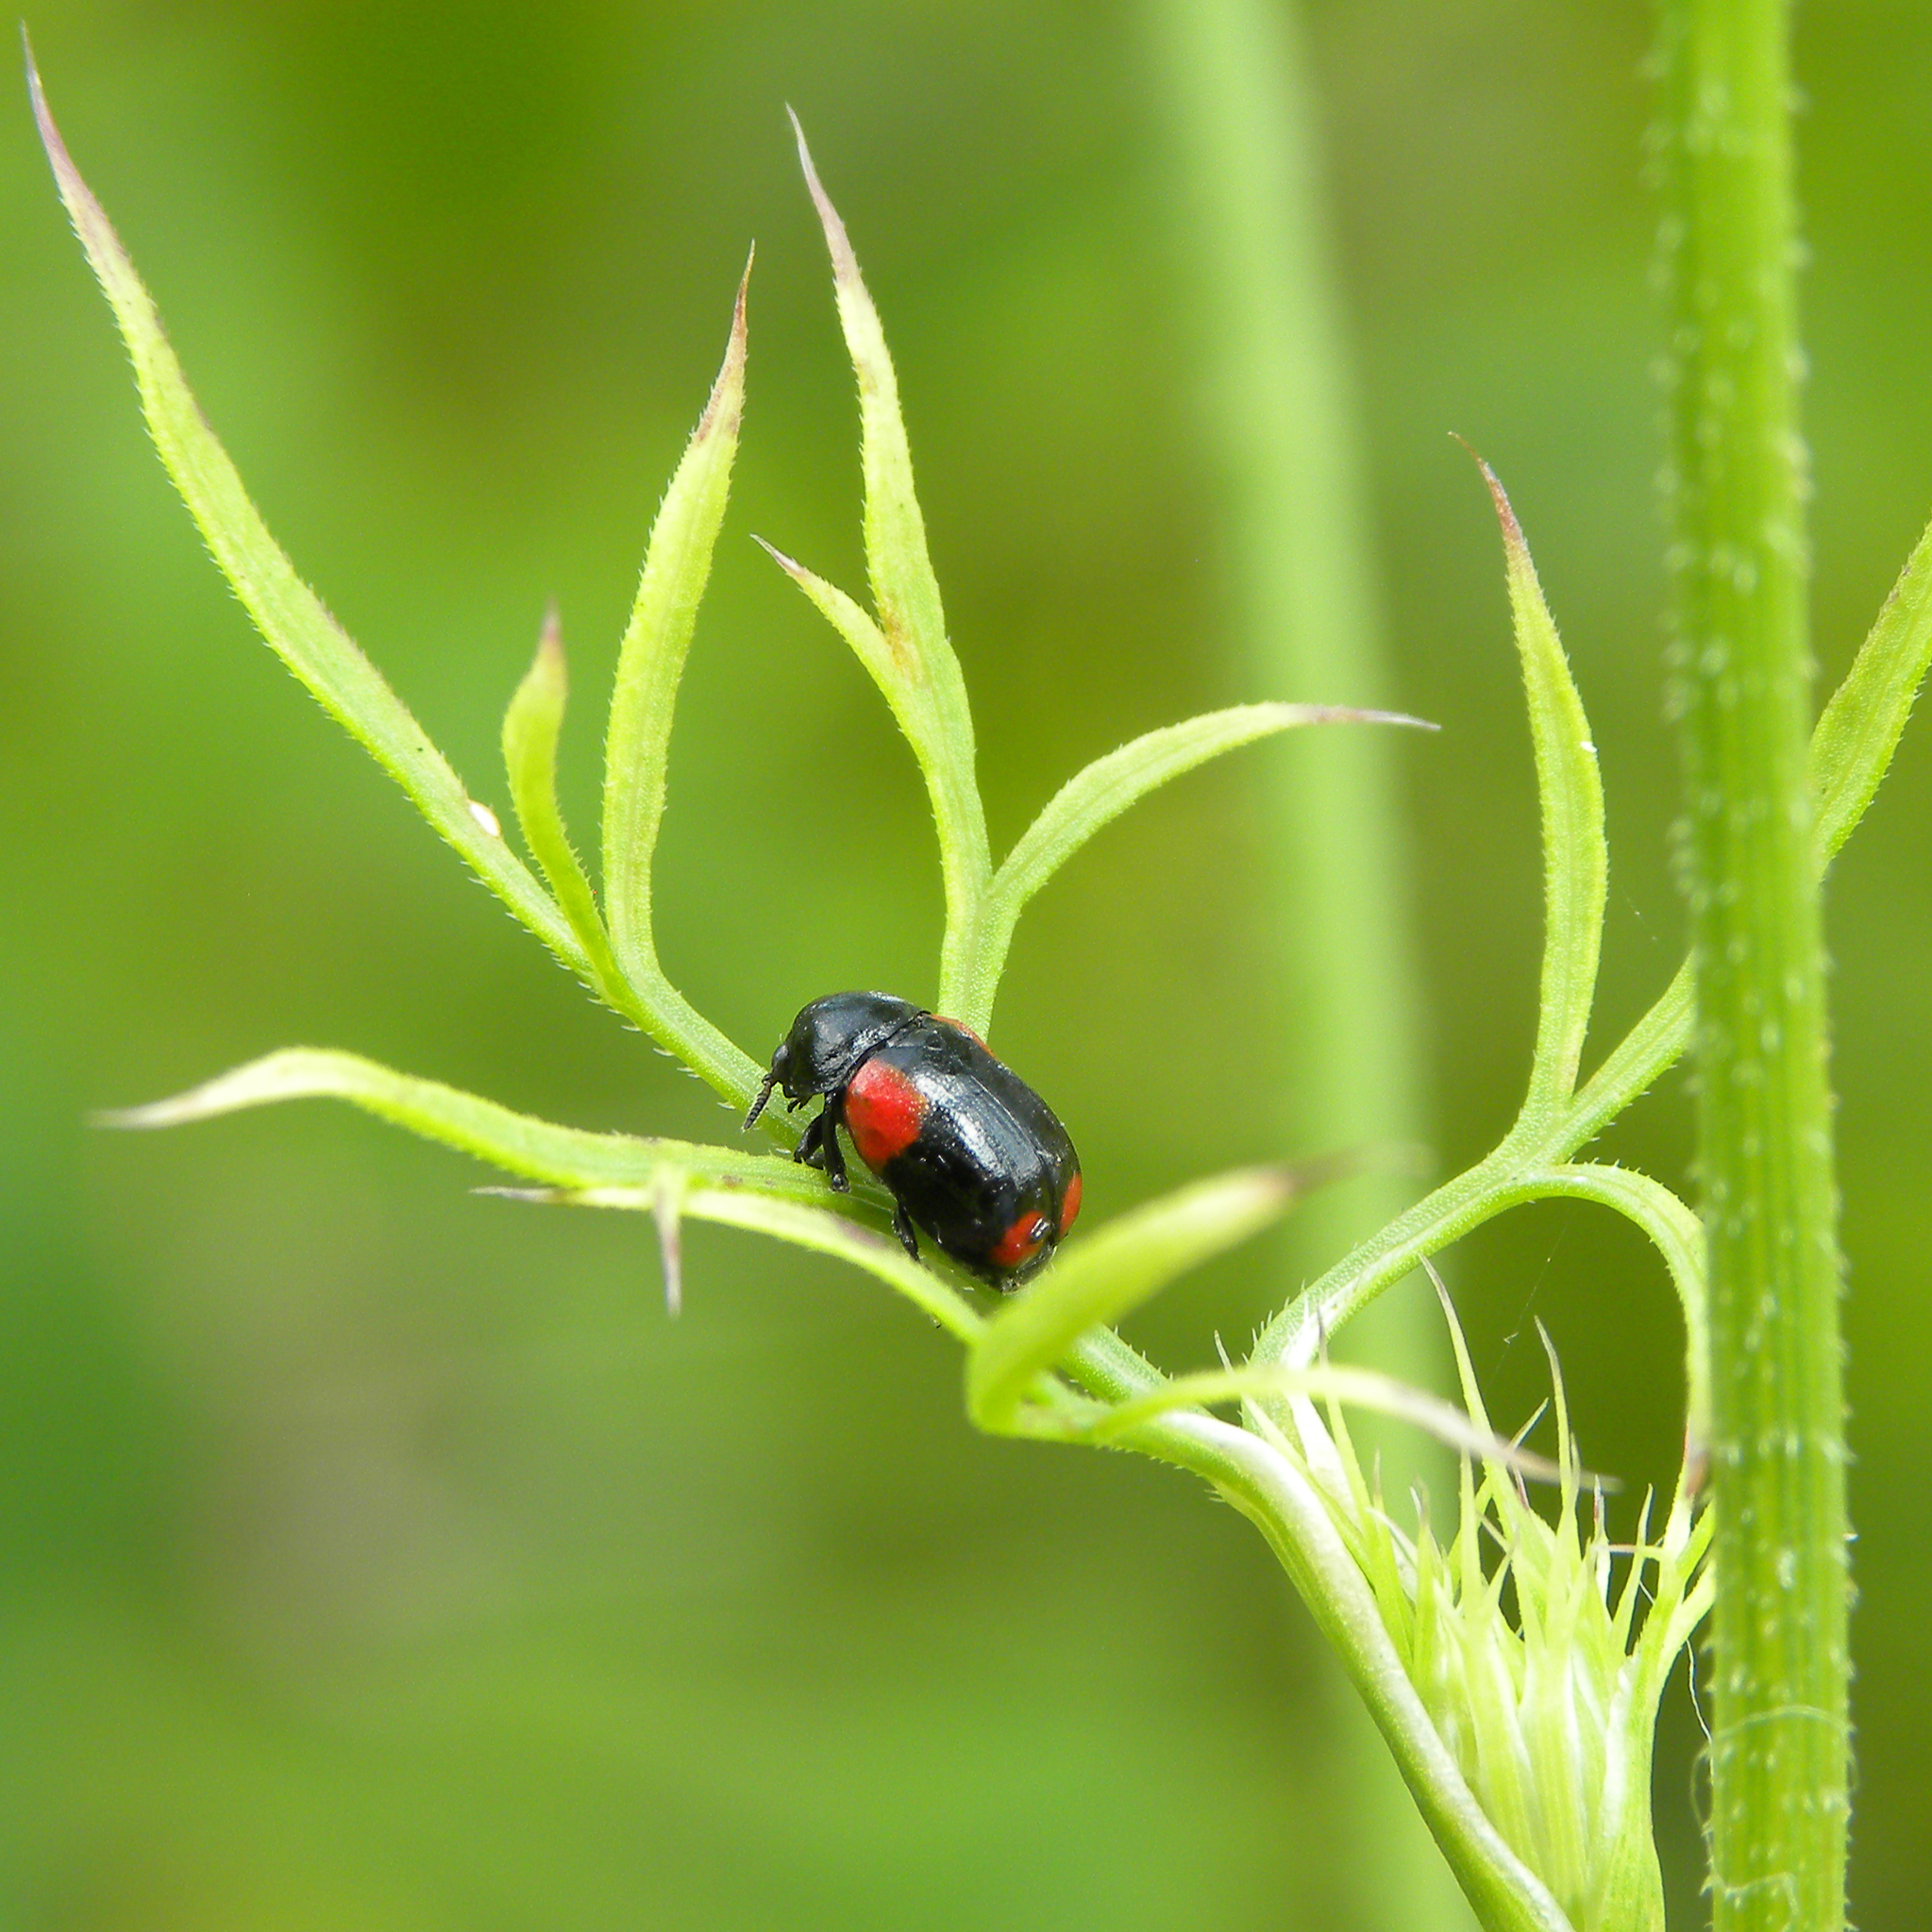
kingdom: Animalia
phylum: Arthropoda
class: Insecta
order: Coleoptera
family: Chrysomelidae
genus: Babia
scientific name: Babia quadriguttata
